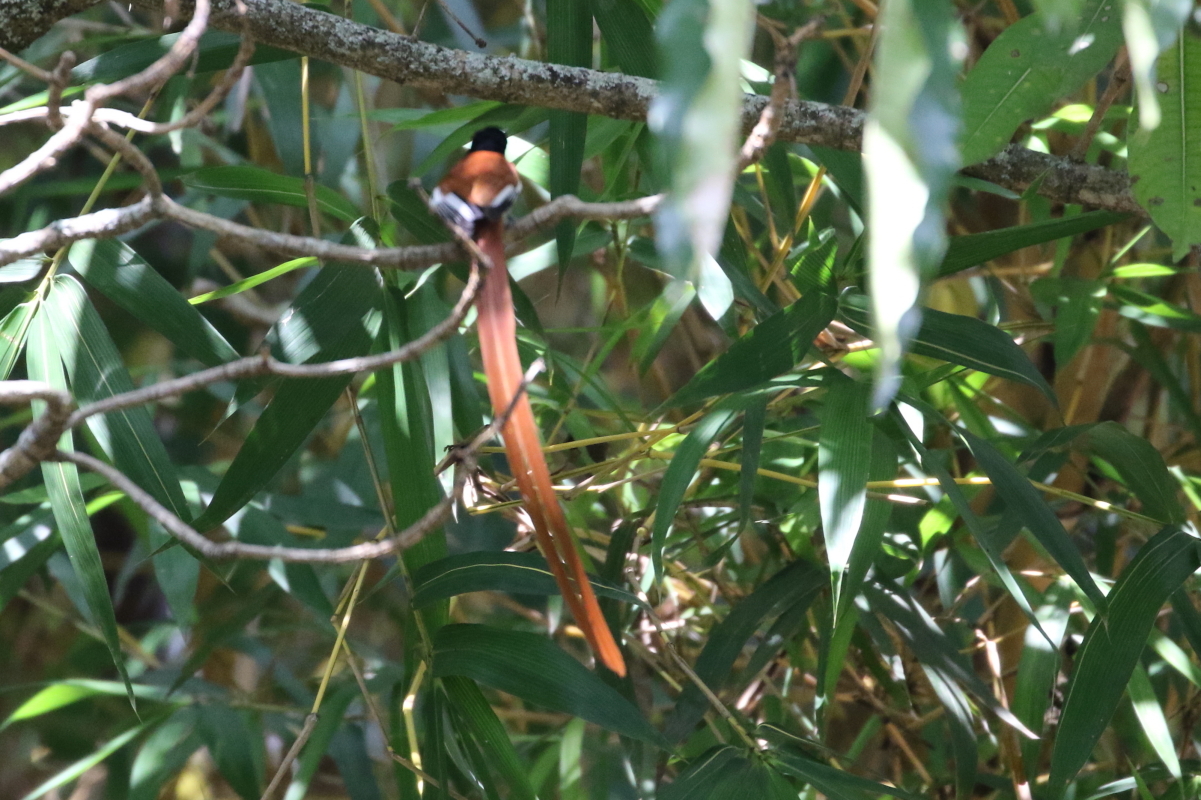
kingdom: Animalia
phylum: Chordata
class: Aves
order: Passeriformes
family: Monarchidae
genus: Terpsiphone
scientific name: Terpsiphone viridis
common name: African paradise flycatcher
